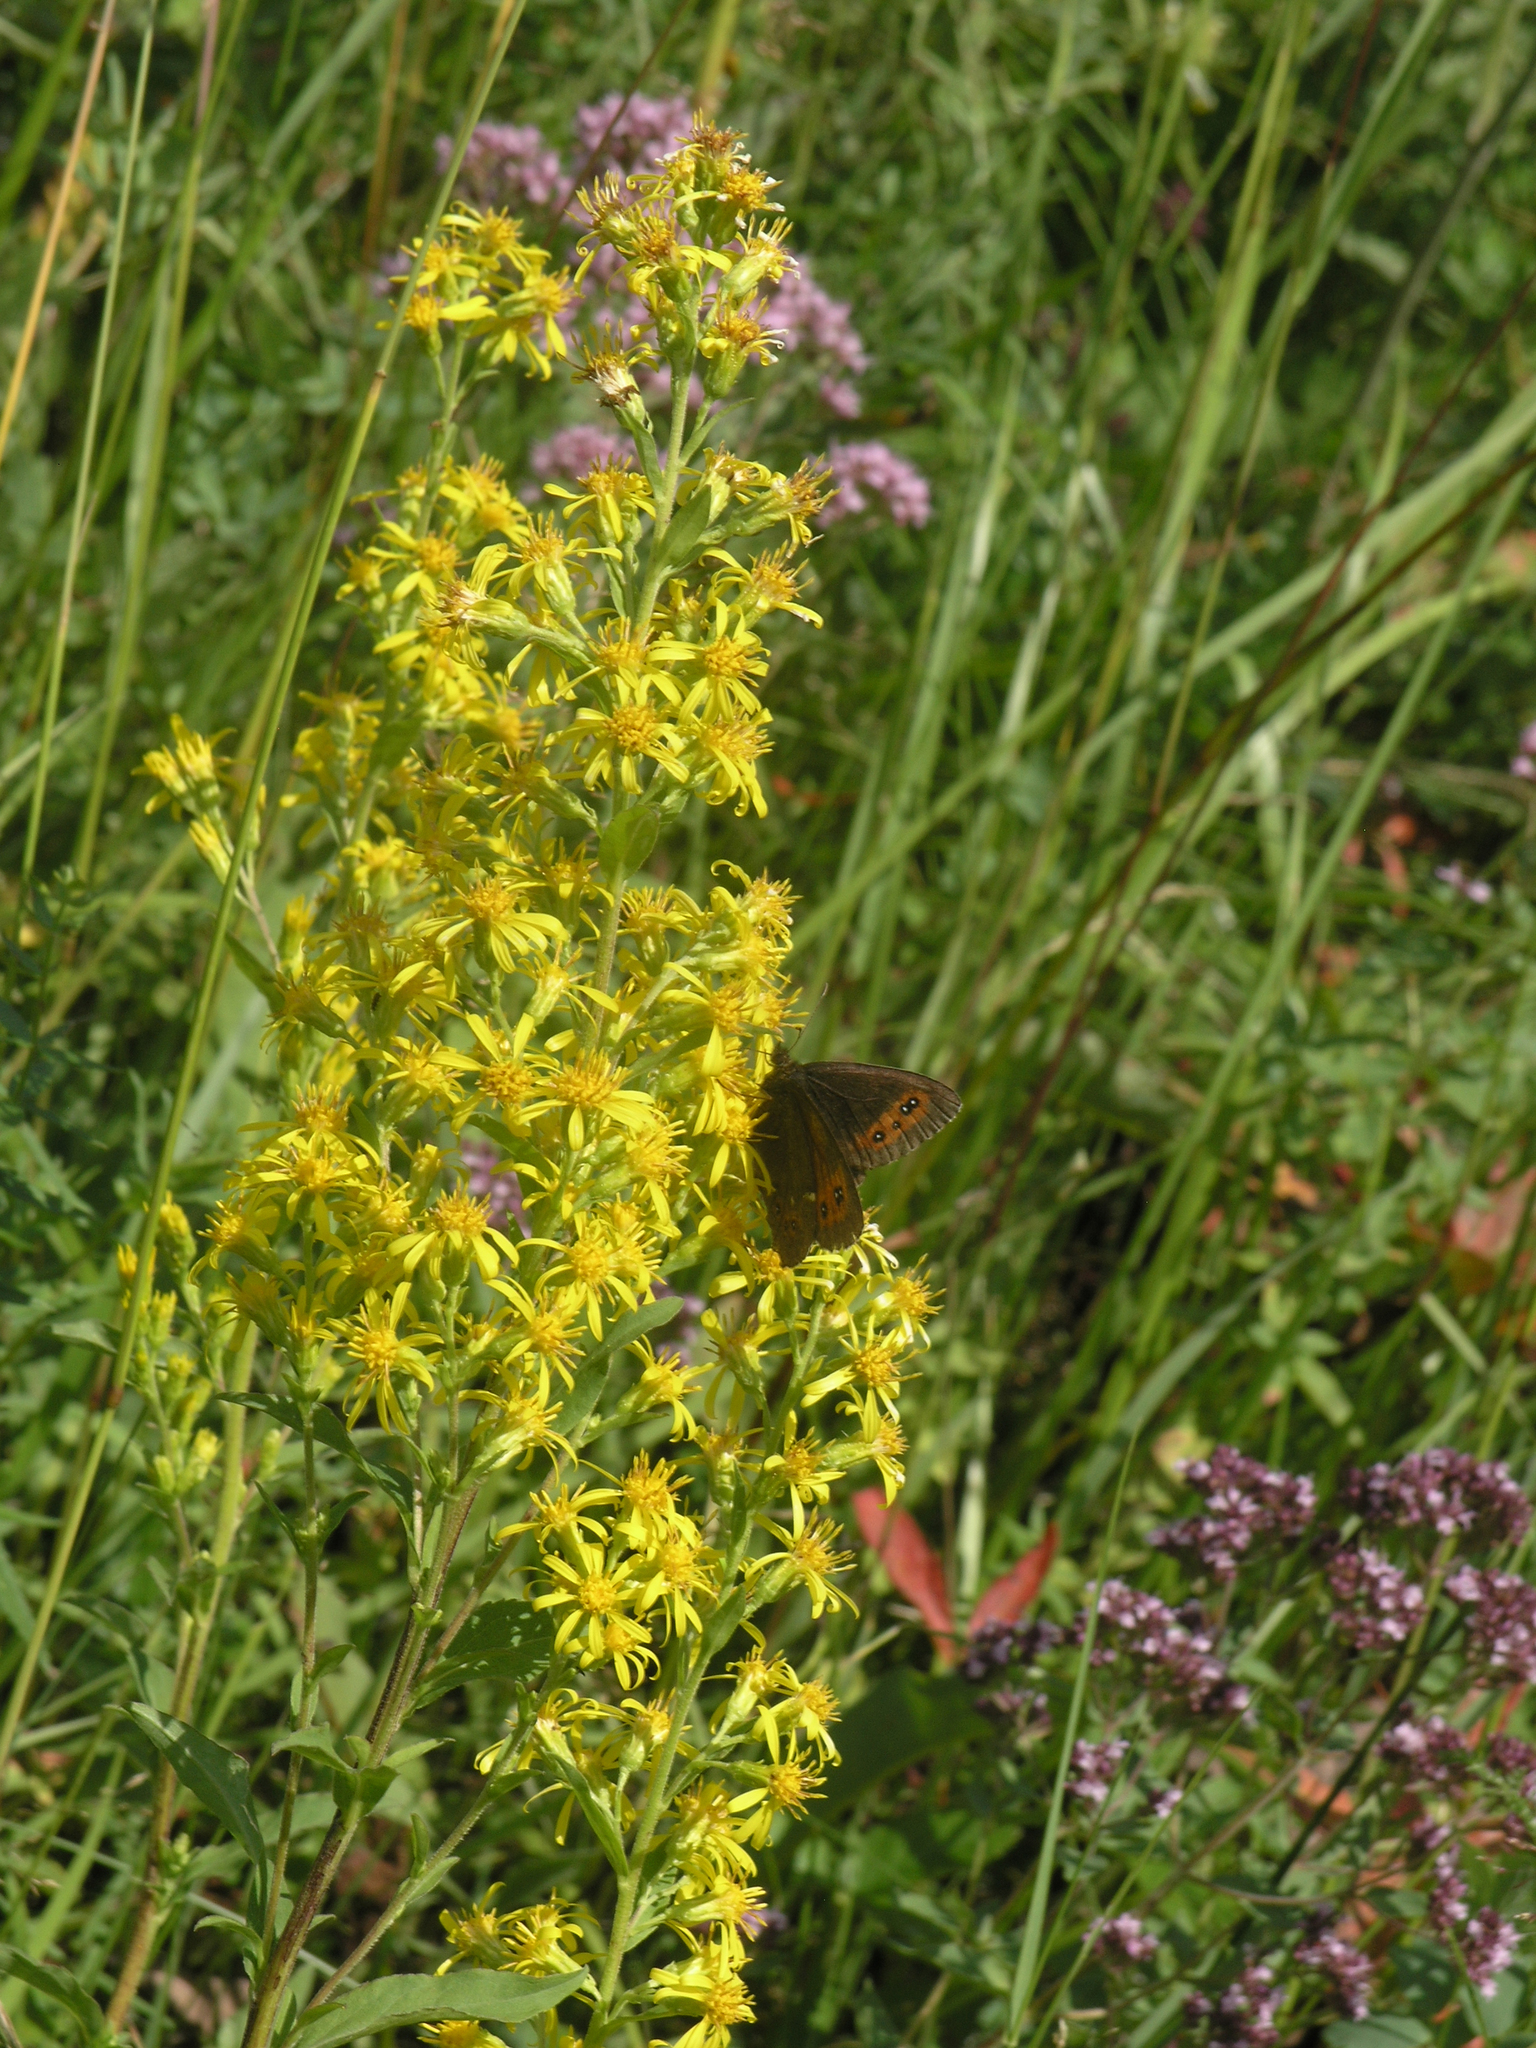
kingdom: Plantae
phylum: Tracheophyta
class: Magnoliopsida
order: Asterales
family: Asteraceae
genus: Solidago
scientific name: Solidago virgaurea
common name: Goldenrod
